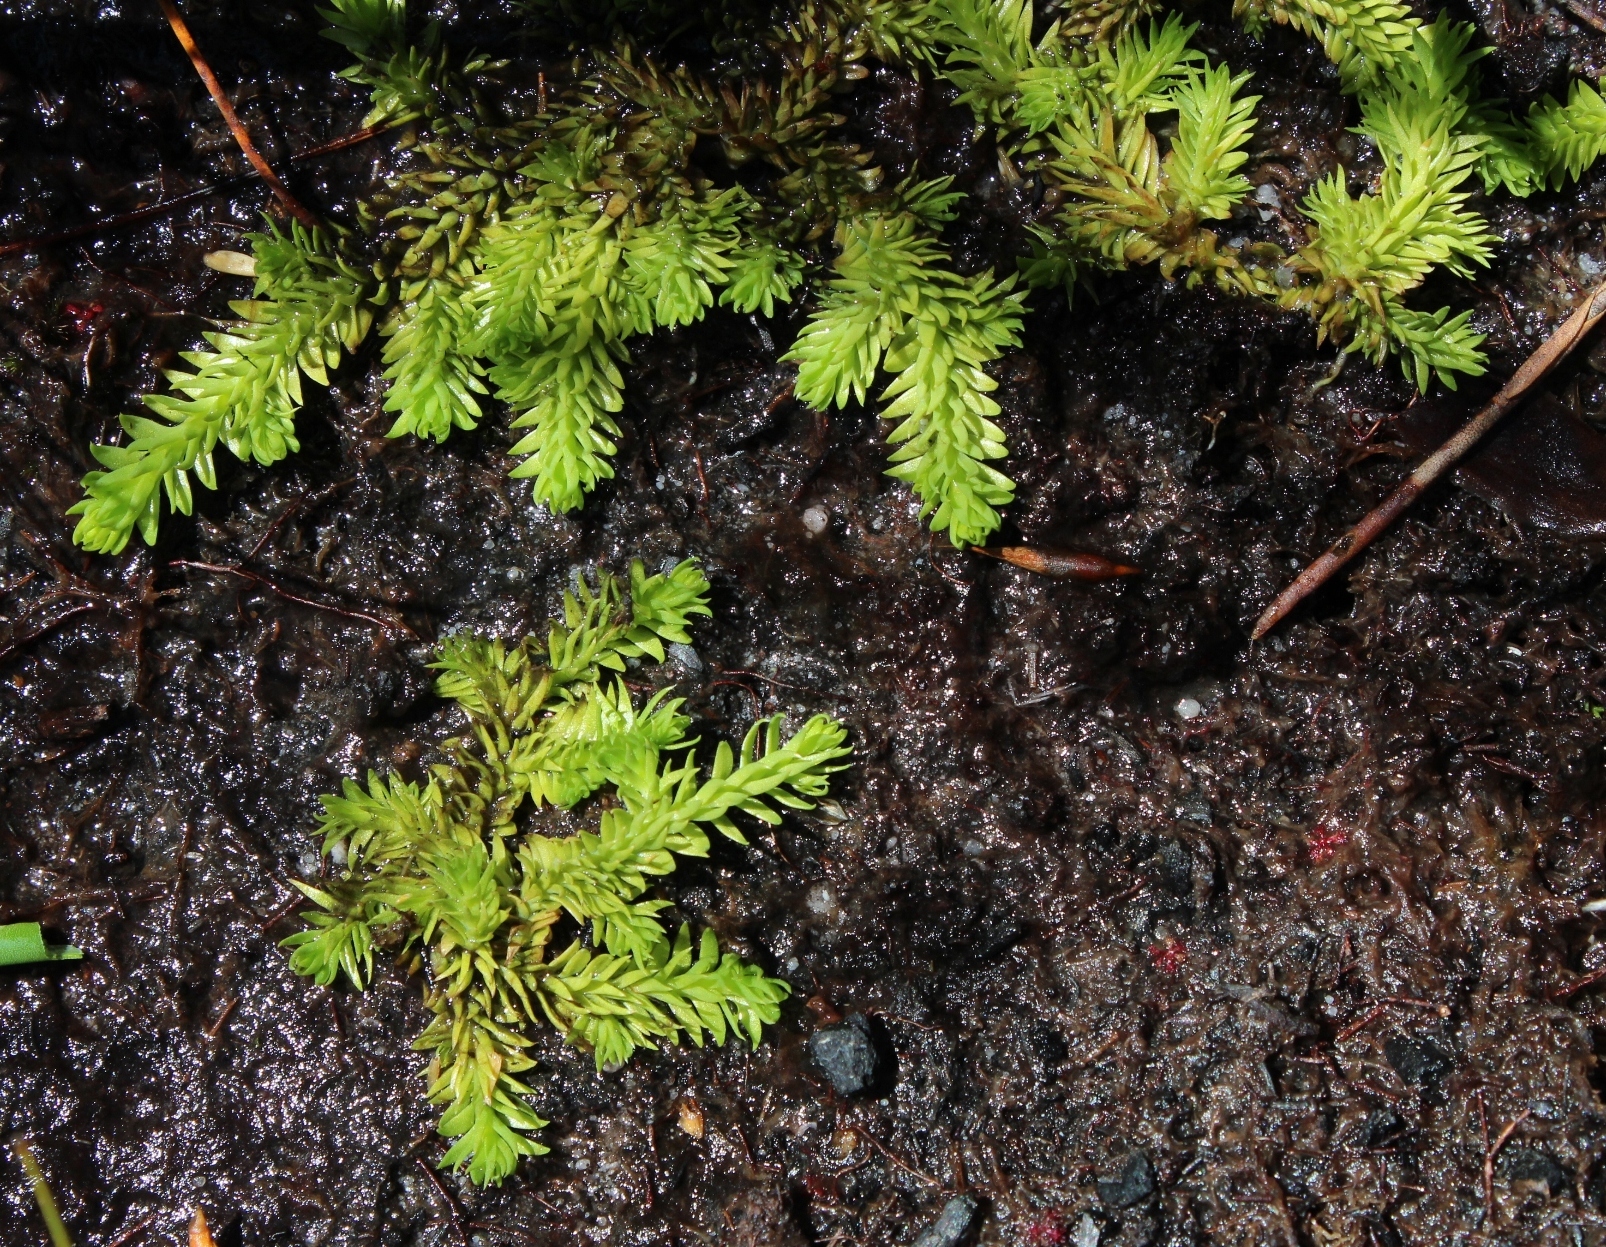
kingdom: Plantae
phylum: Tracheophyta
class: Lycopodiopsida
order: Lycopodiales
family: Lycopodiaceae
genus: Pseudolycopodiella
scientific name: Pseudolycopodiella caroliniana
